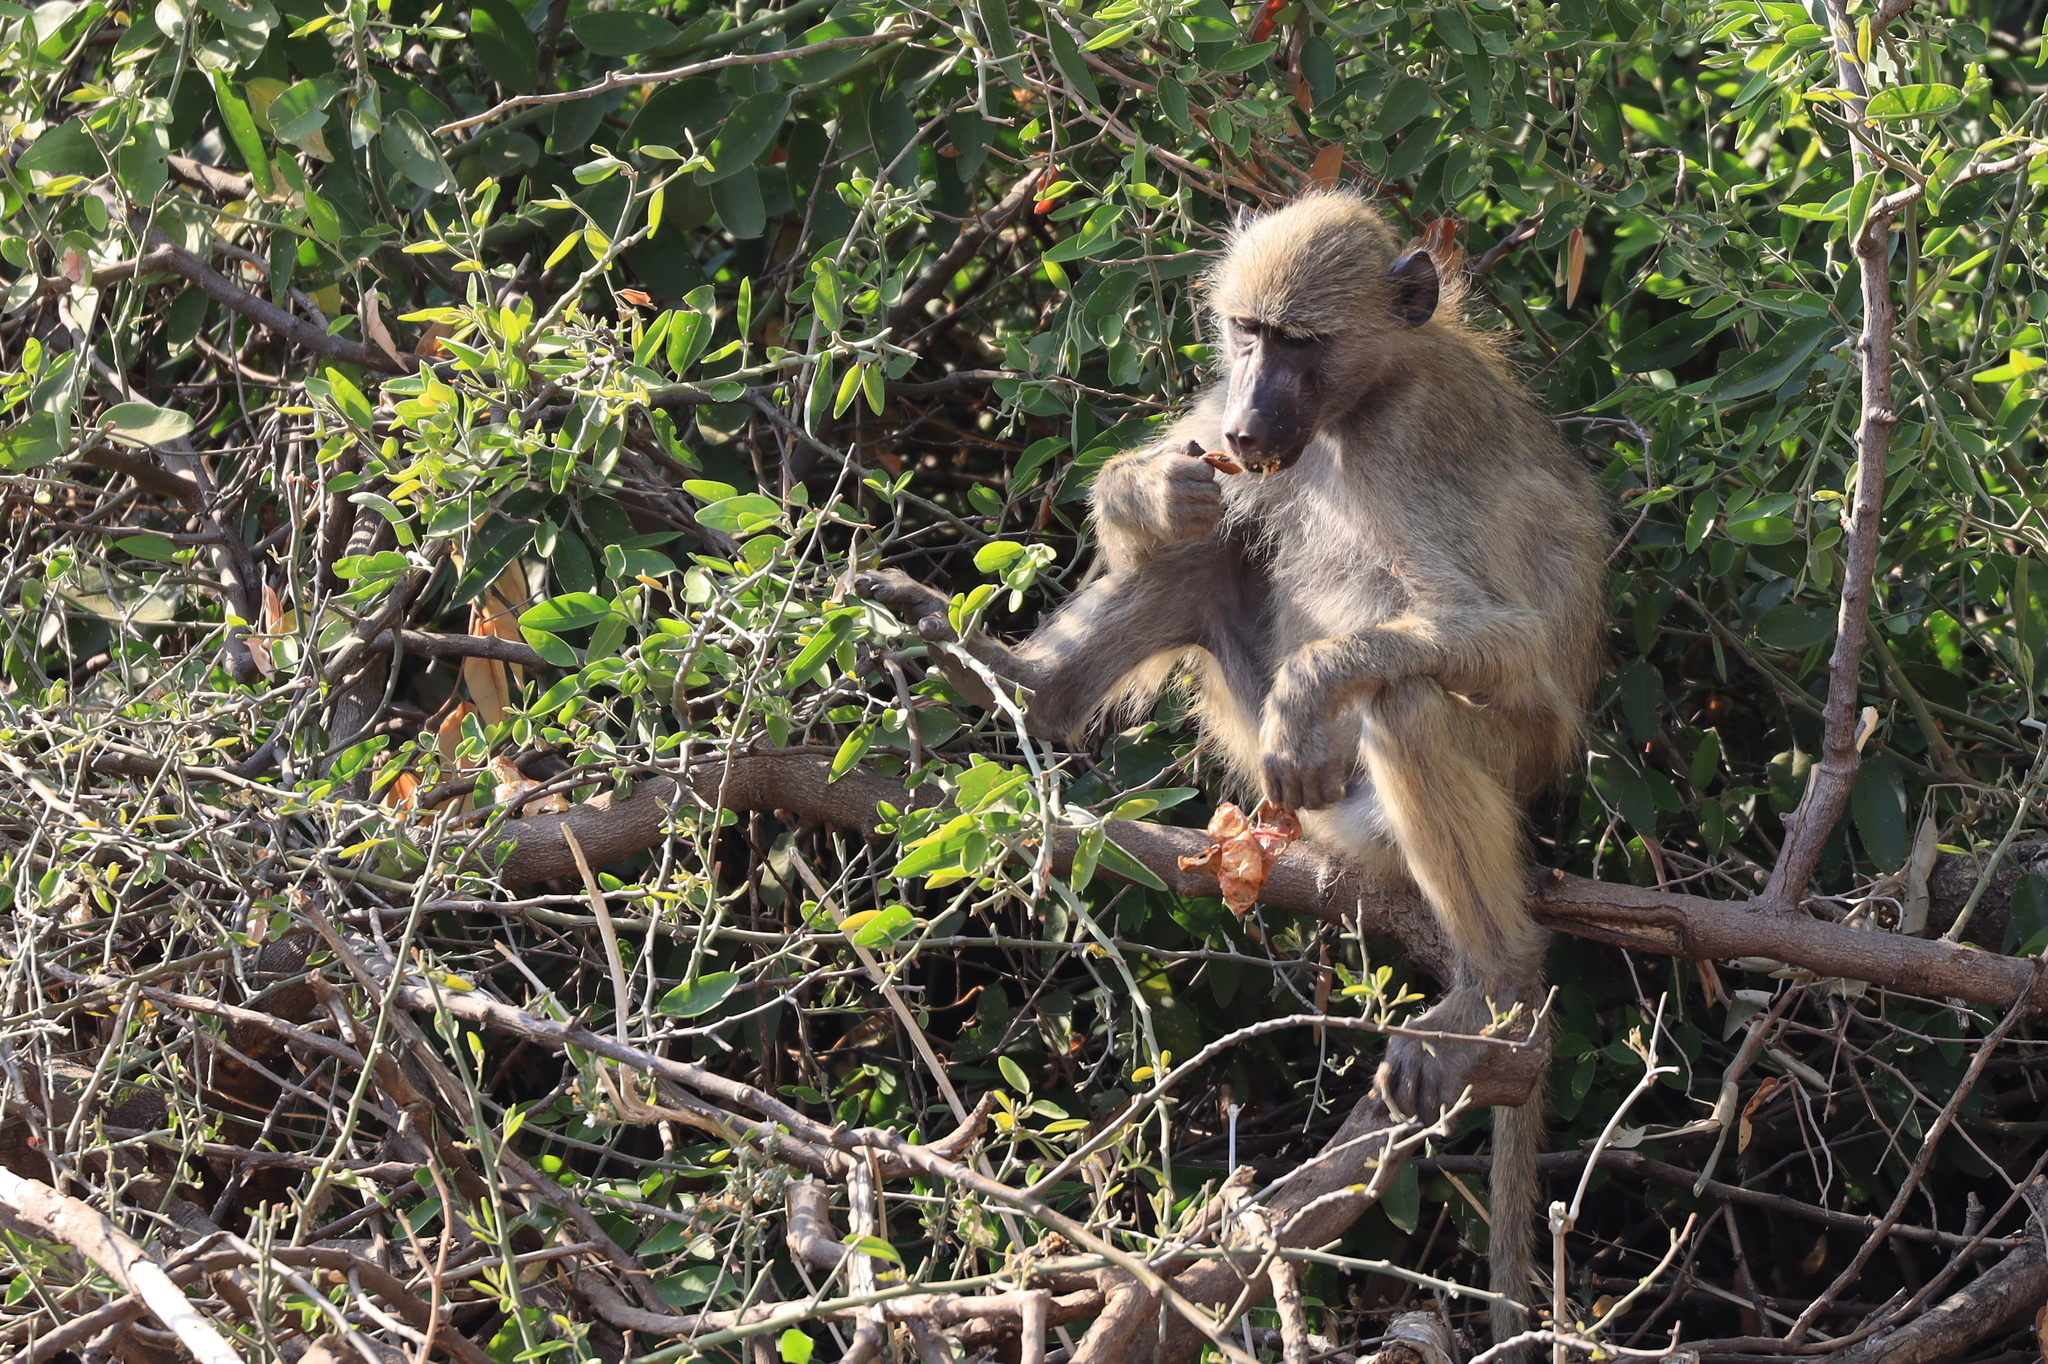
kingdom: Animalia
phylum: Chordata
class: Mammalia
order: Primates
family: Cercopithecidae
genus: Papio
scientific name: Papio cynocephalus
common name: Yellow baboon
